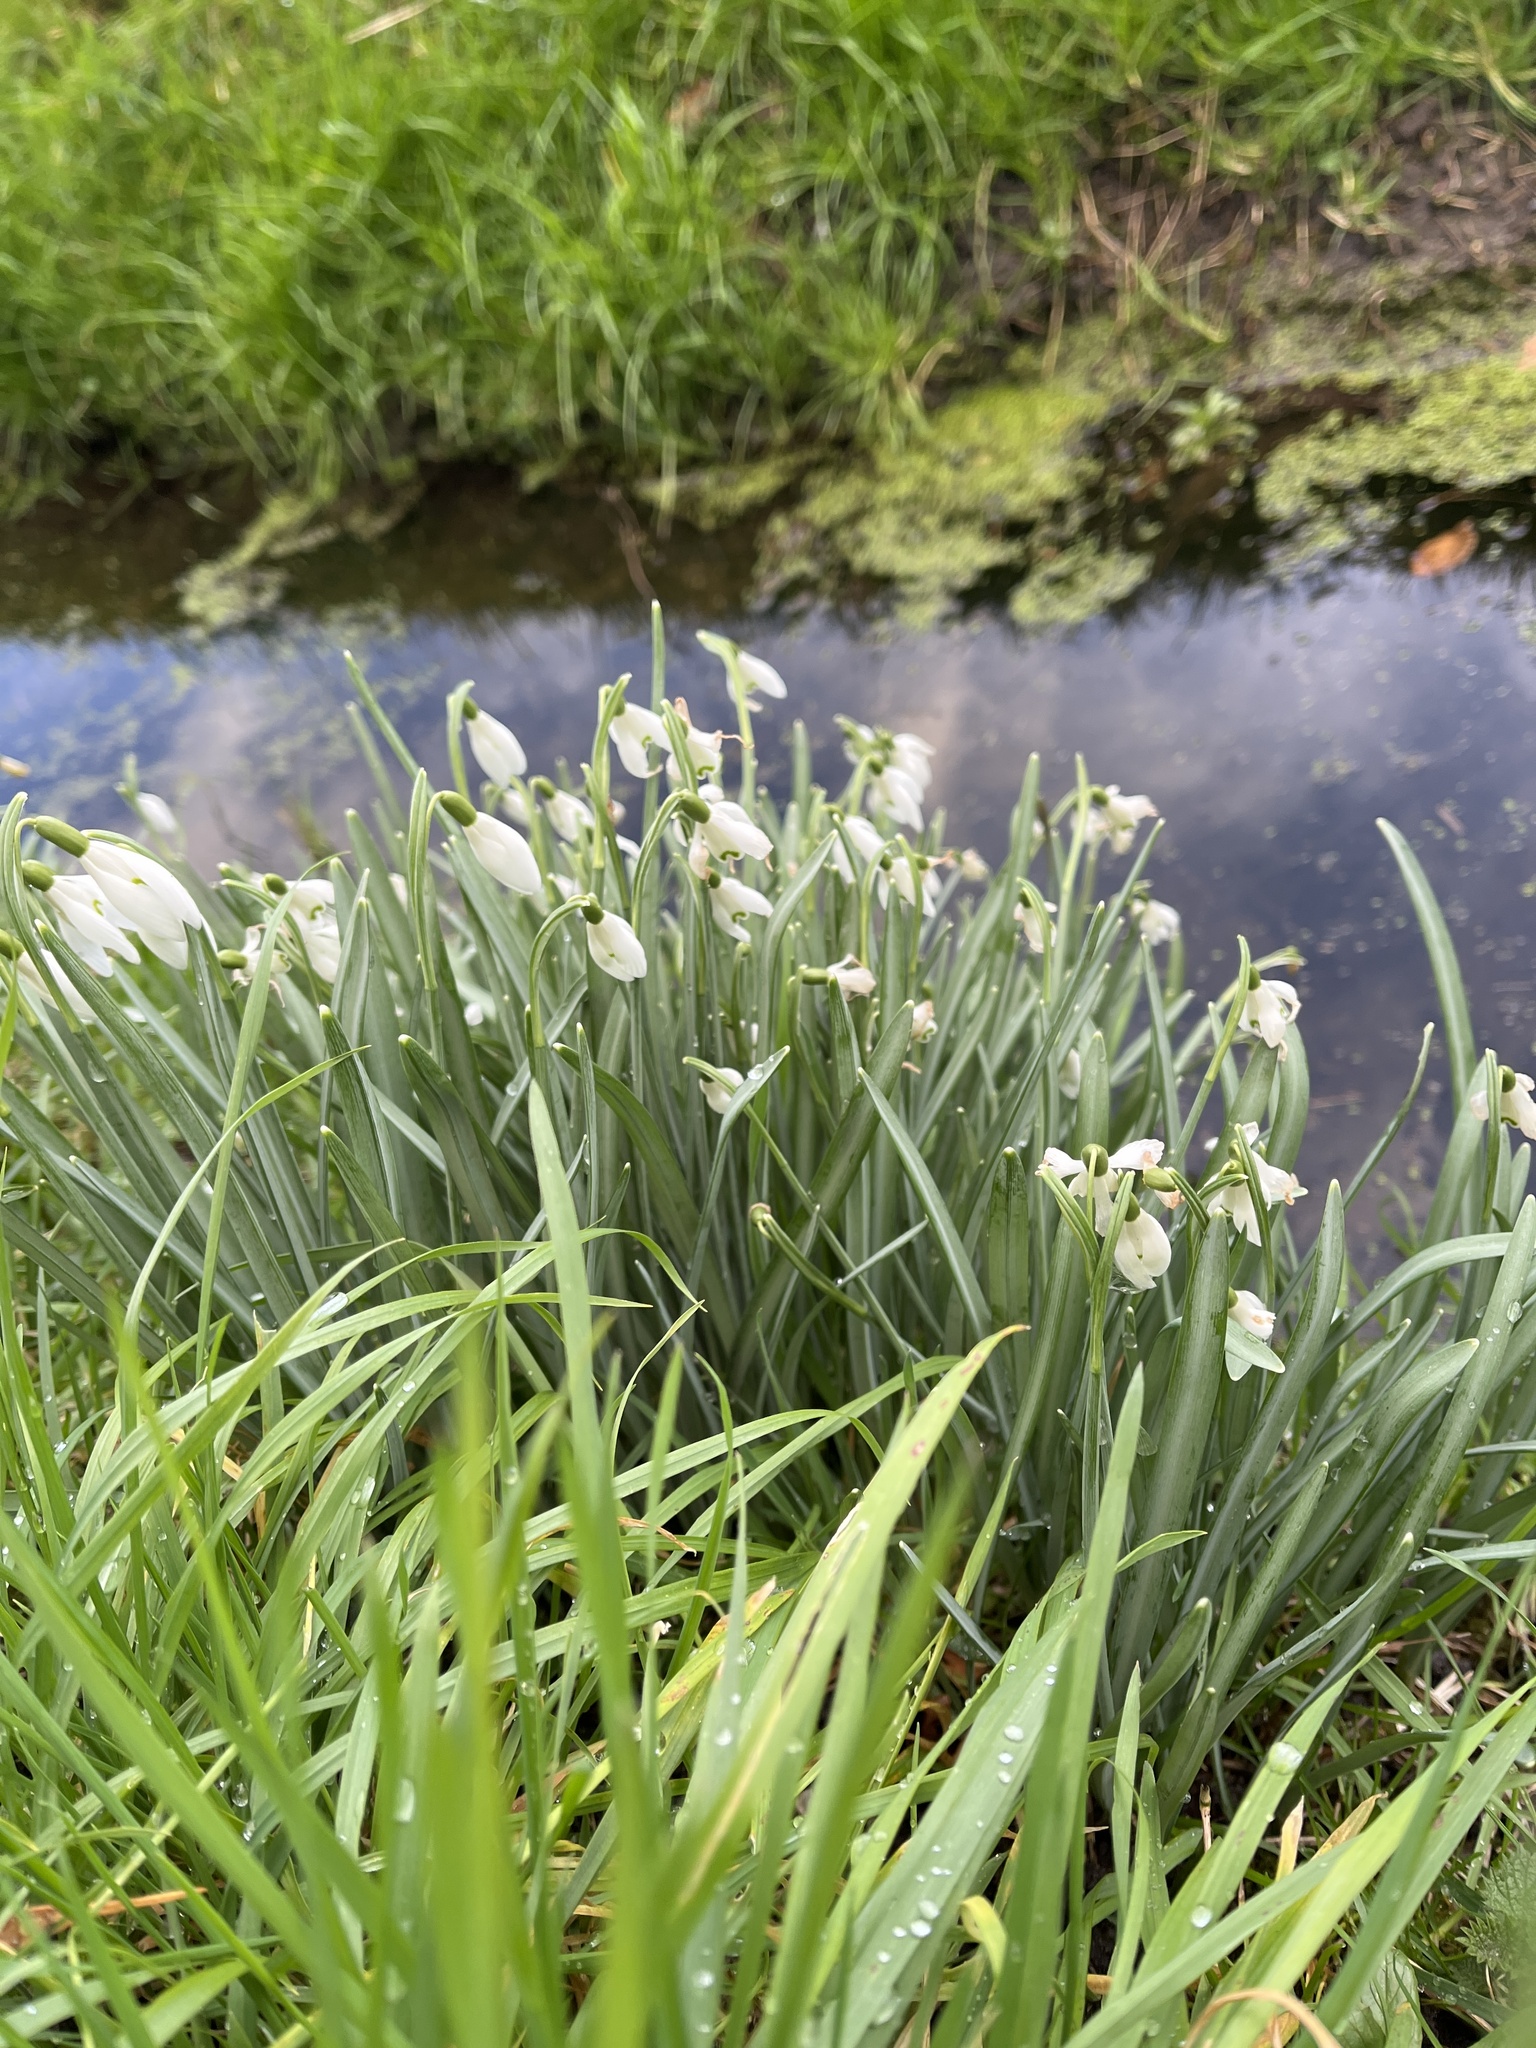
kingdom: Plantae
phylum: Tracheophyta
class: Liliopsida
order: Asparagales
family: Amaryllidaceae
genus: Galanthus
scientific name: Galanthus nivalis
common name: Snowdrop
